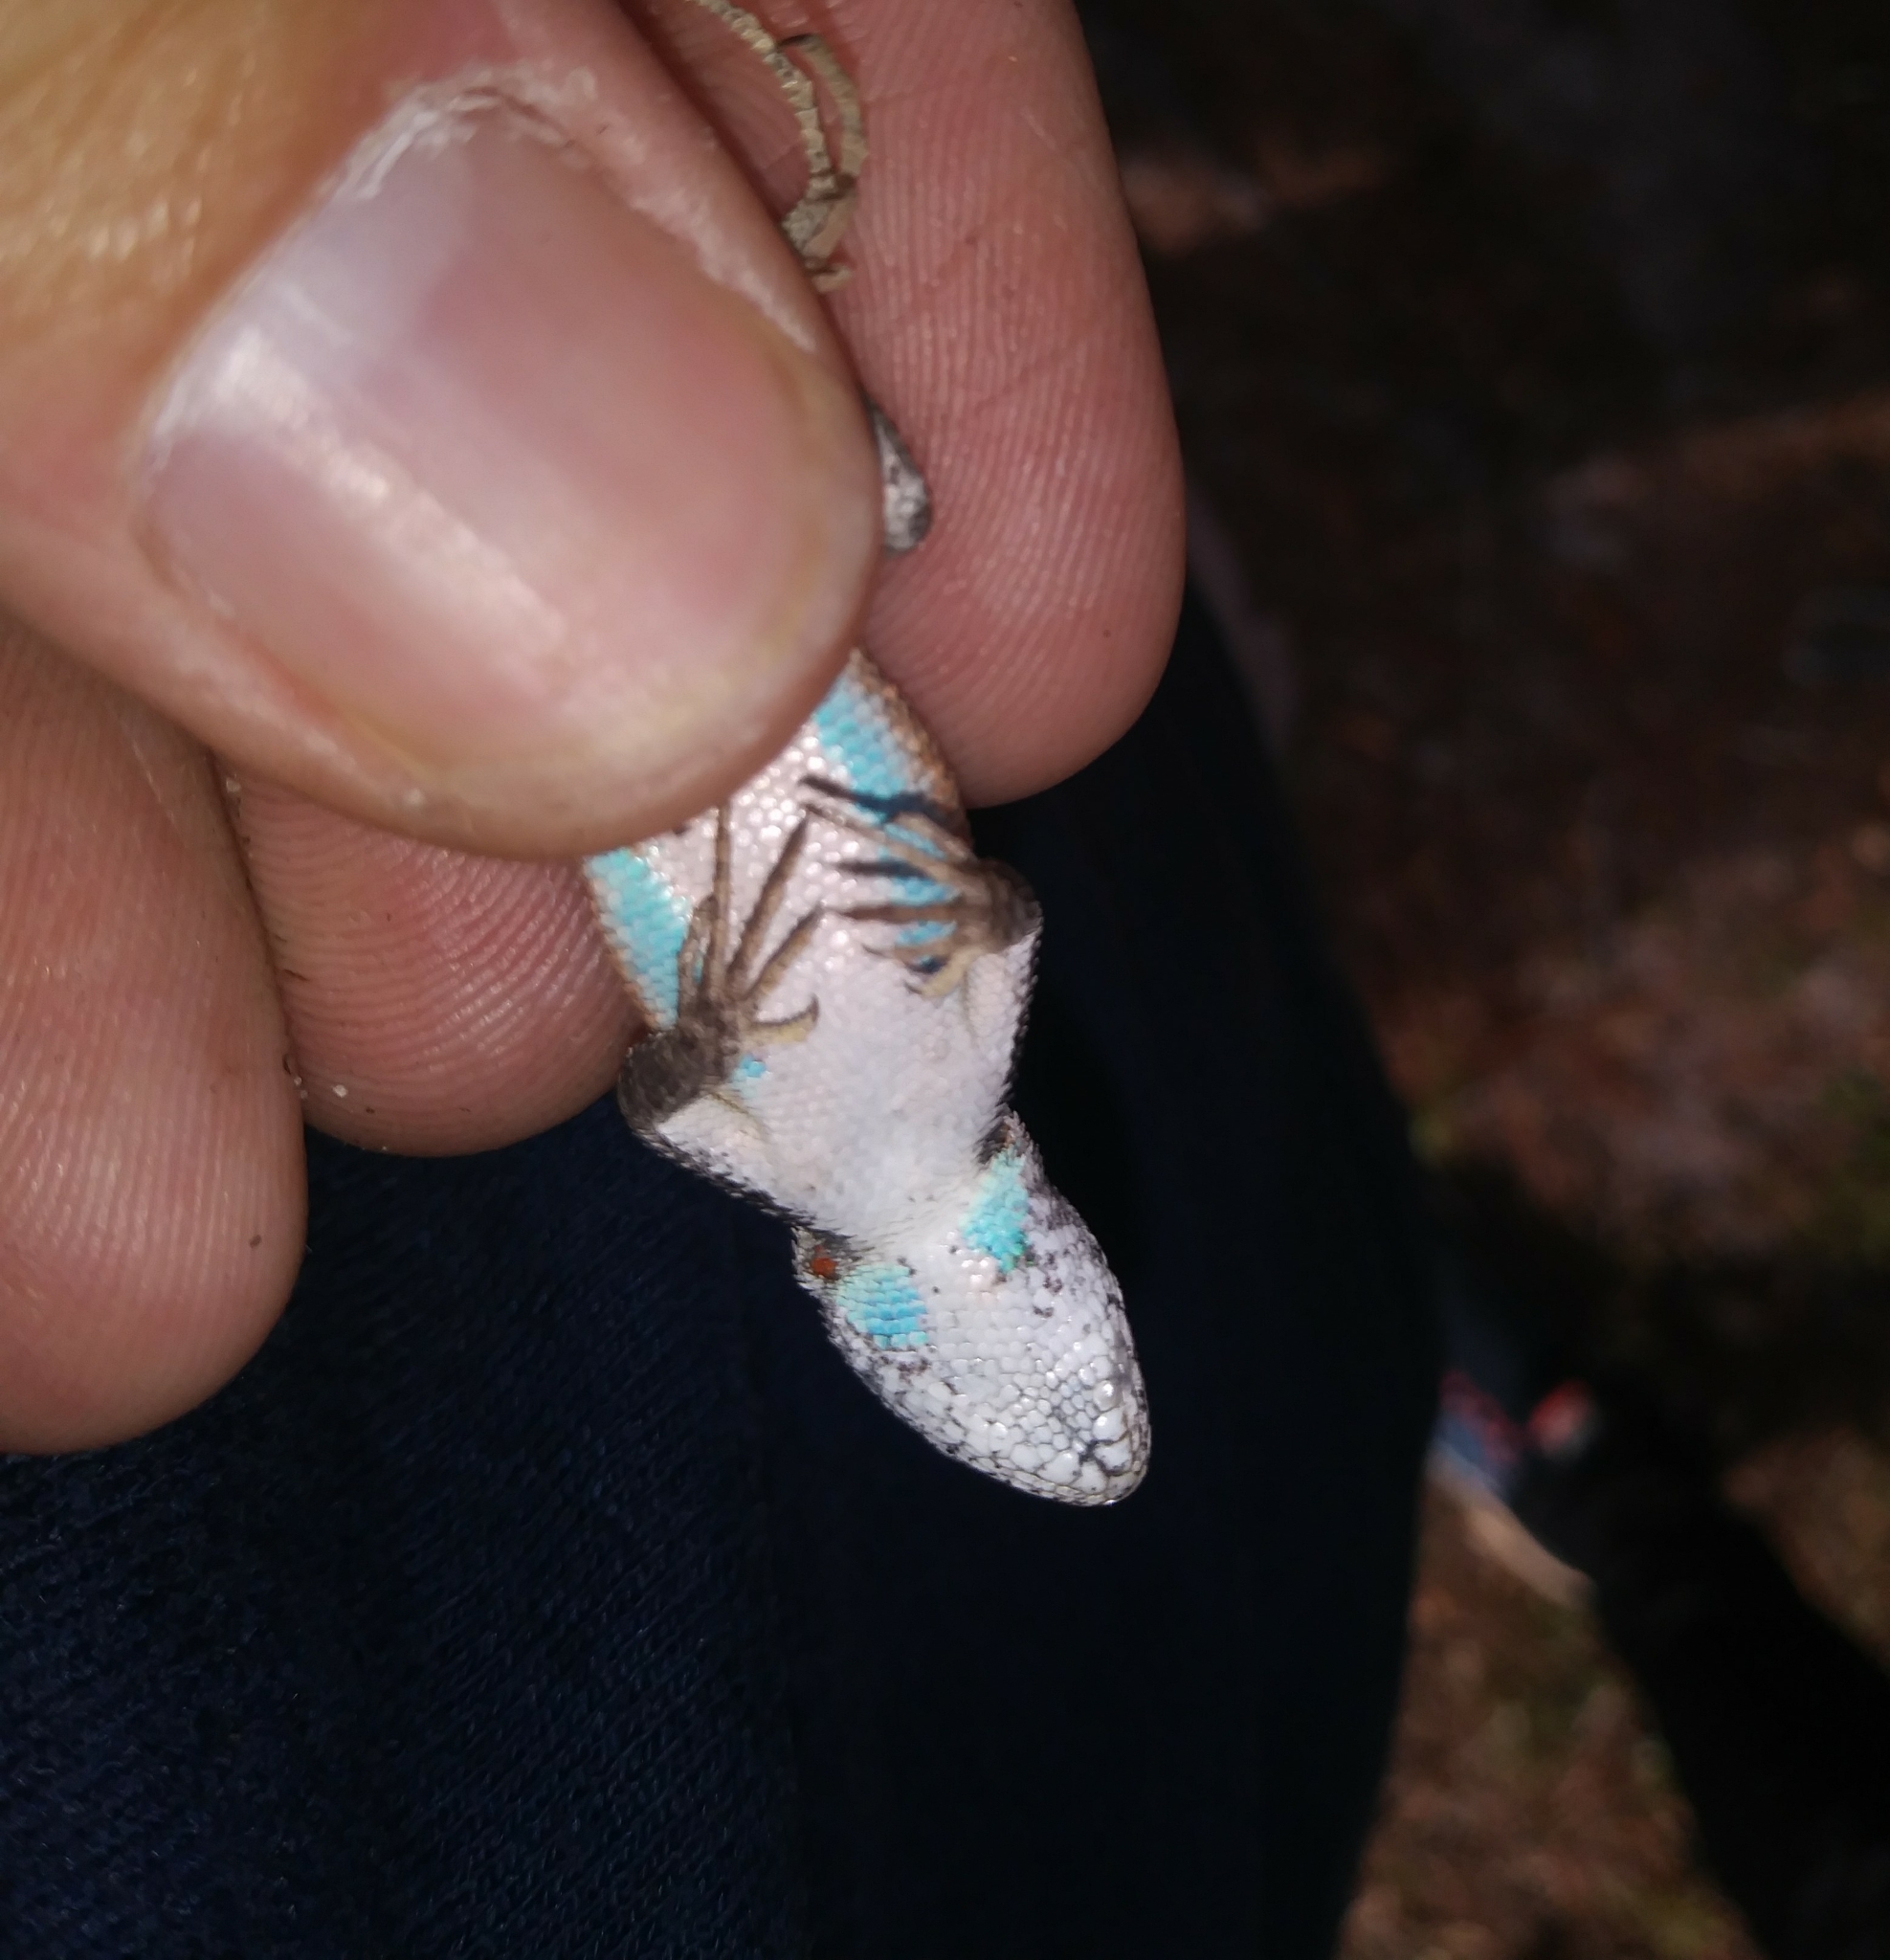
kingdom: Animalia
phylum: Chordata
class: Squamata
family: Phrynosomatidae
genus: Sceloporus
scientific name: Sceloporus woodi
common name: Florida scrub lizard
